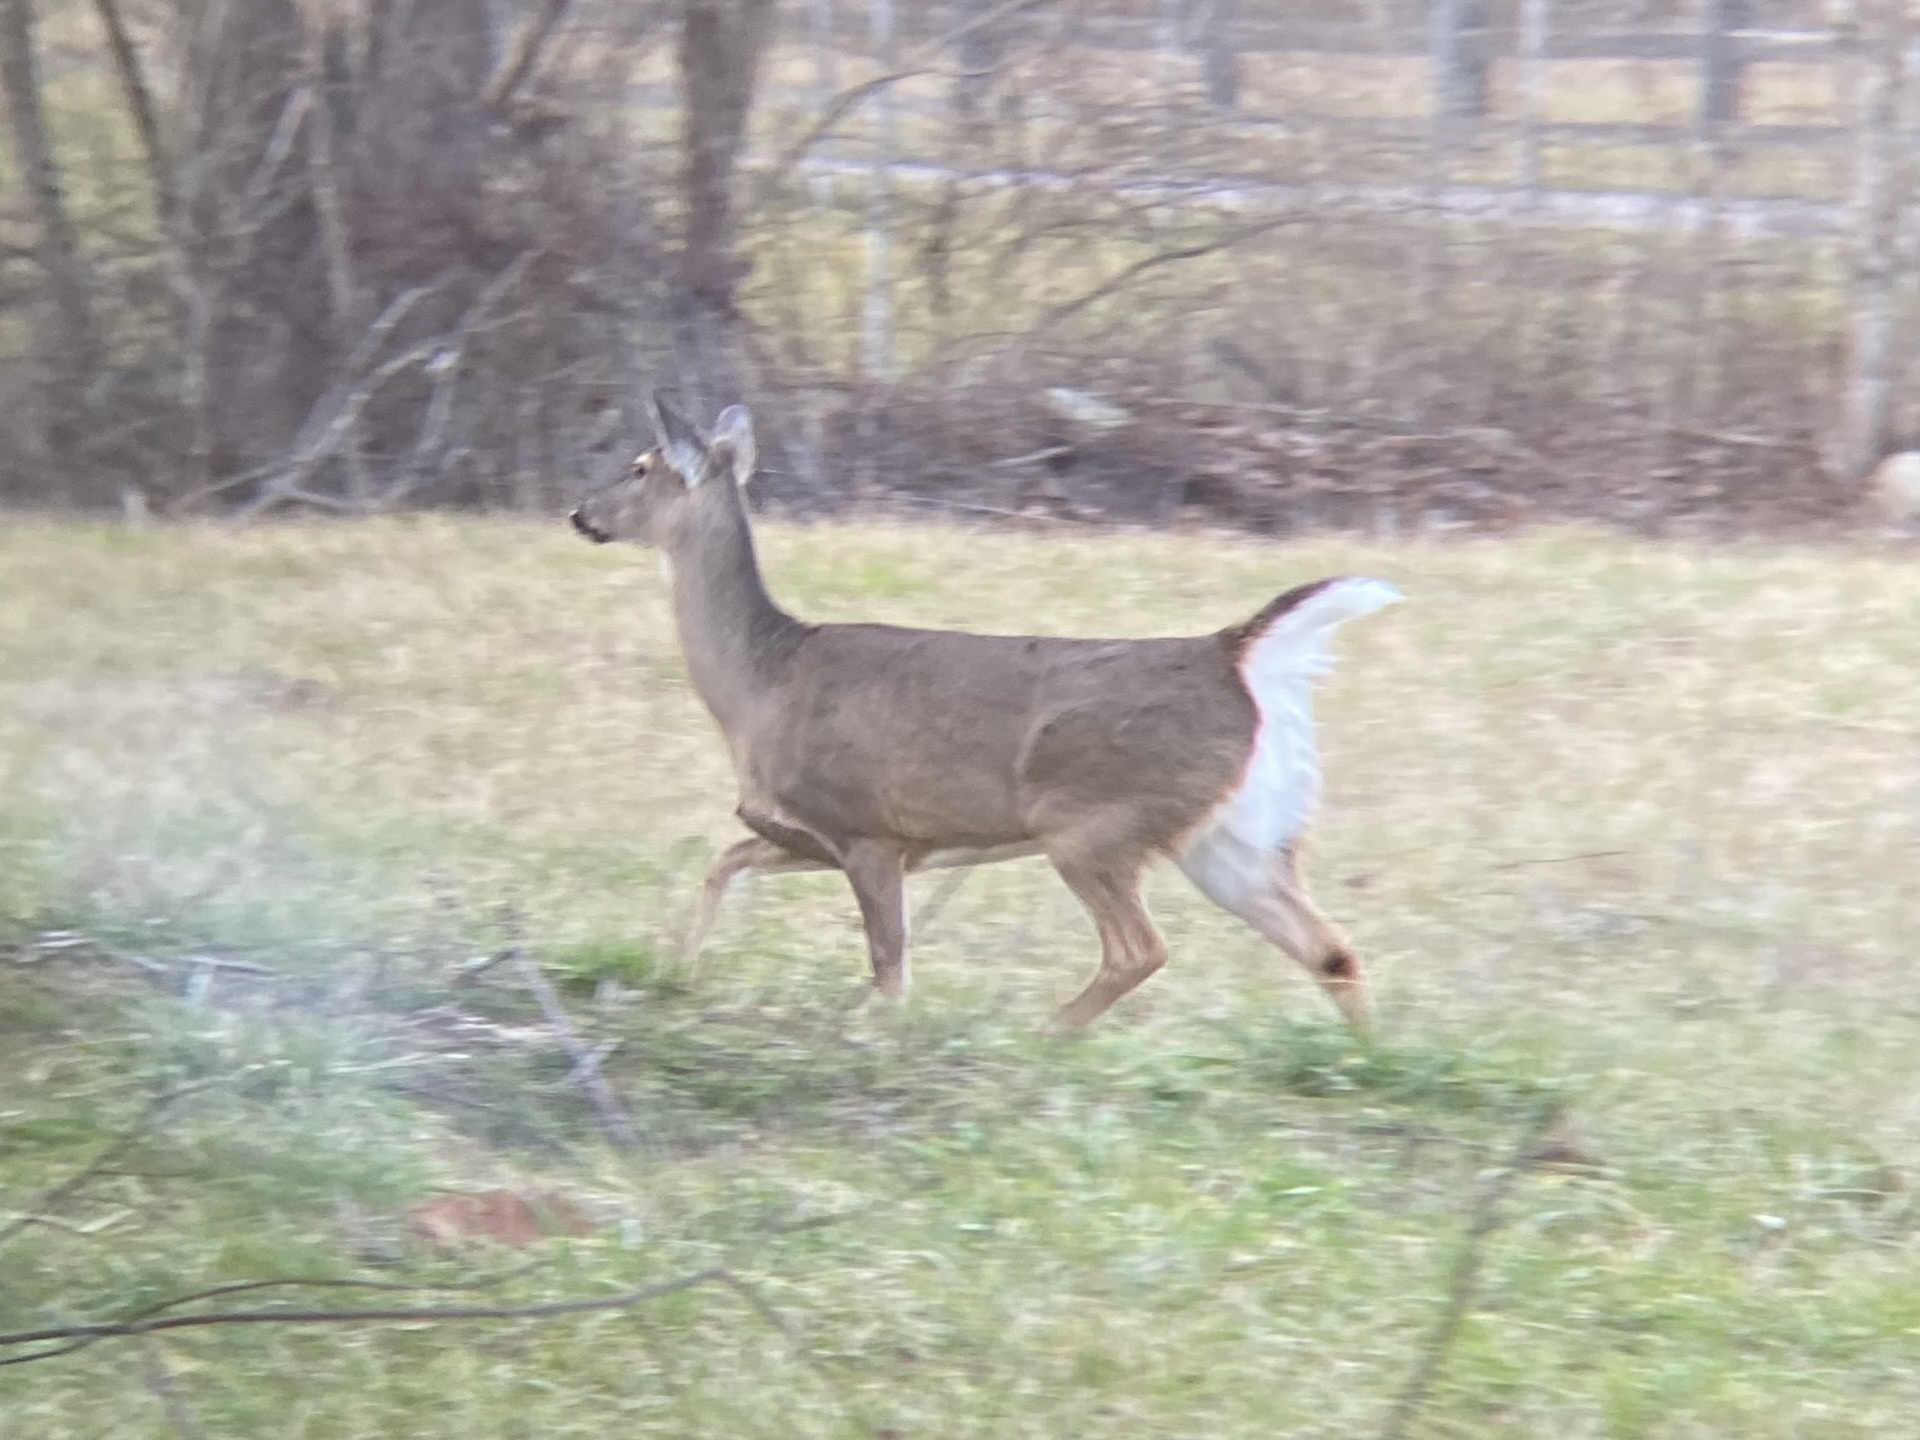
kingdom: Animalia
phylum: Chordata
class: Mammalia
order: Artiodactyla
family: Cervidae
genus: Odocoileus
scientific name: Odocoileus virginianus
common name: White-tailed deer
